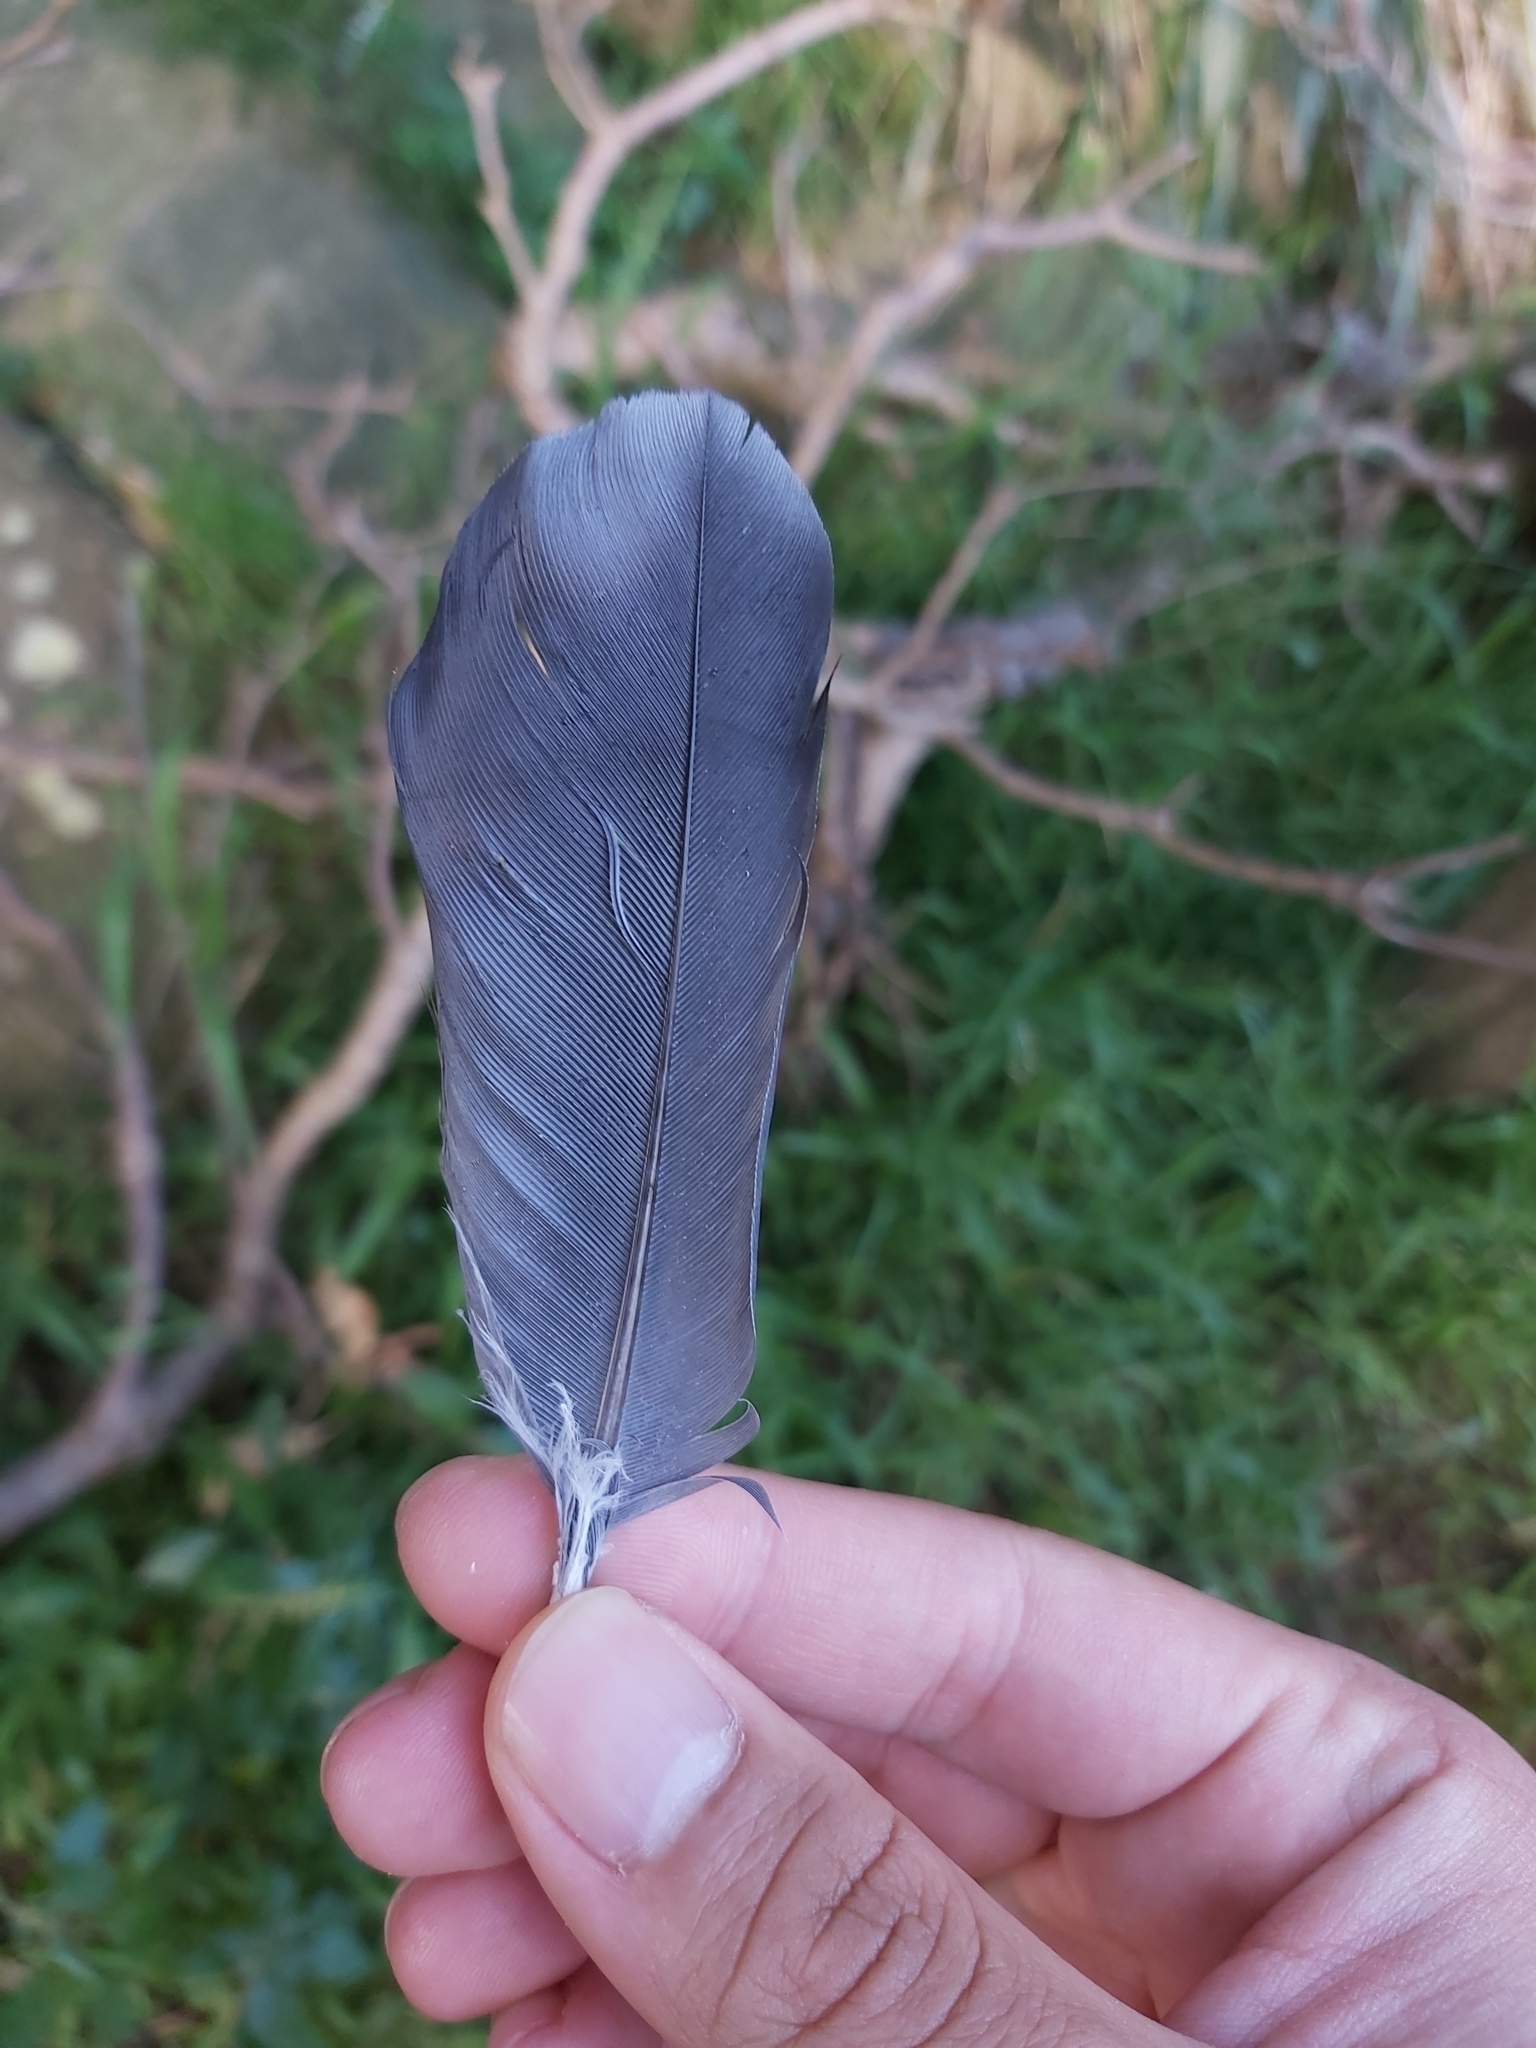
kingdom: Animalia
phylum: Chordata
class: Aves
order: Columbiformes
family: Columbidae
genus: Columba
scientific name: Columba livia
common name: Rock pigeon
